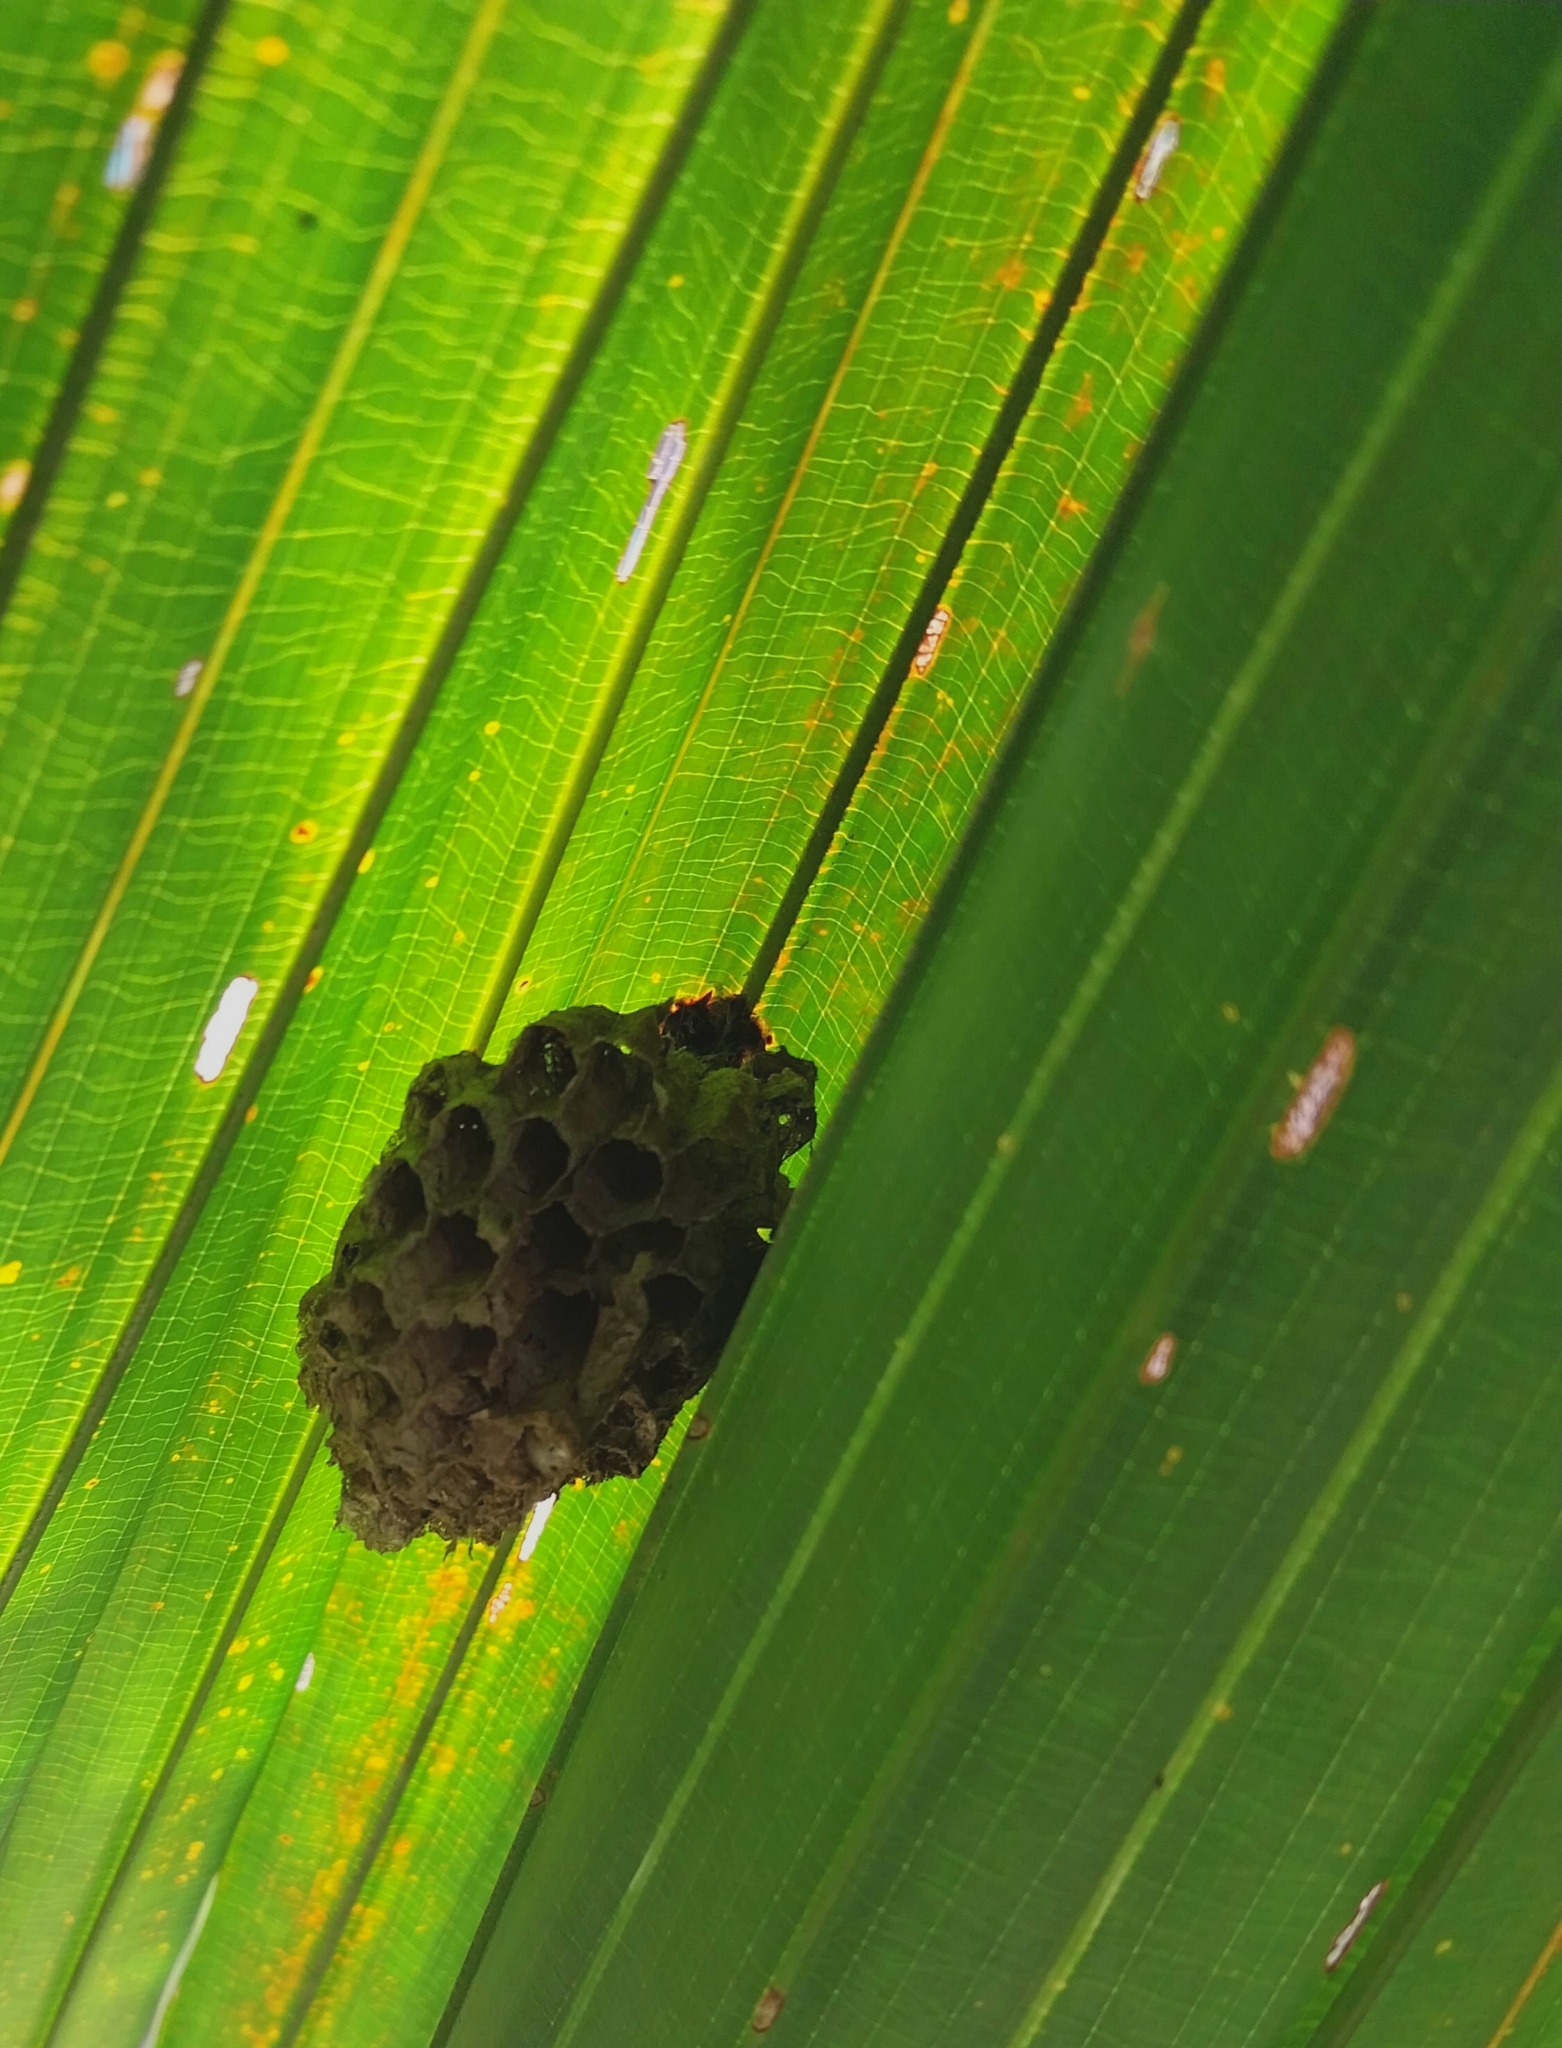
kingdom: Animalia
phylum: Arthropoda
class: Insecta
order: Hymenoptera
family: Eumenidae
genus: Polistes
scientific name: Polistes
